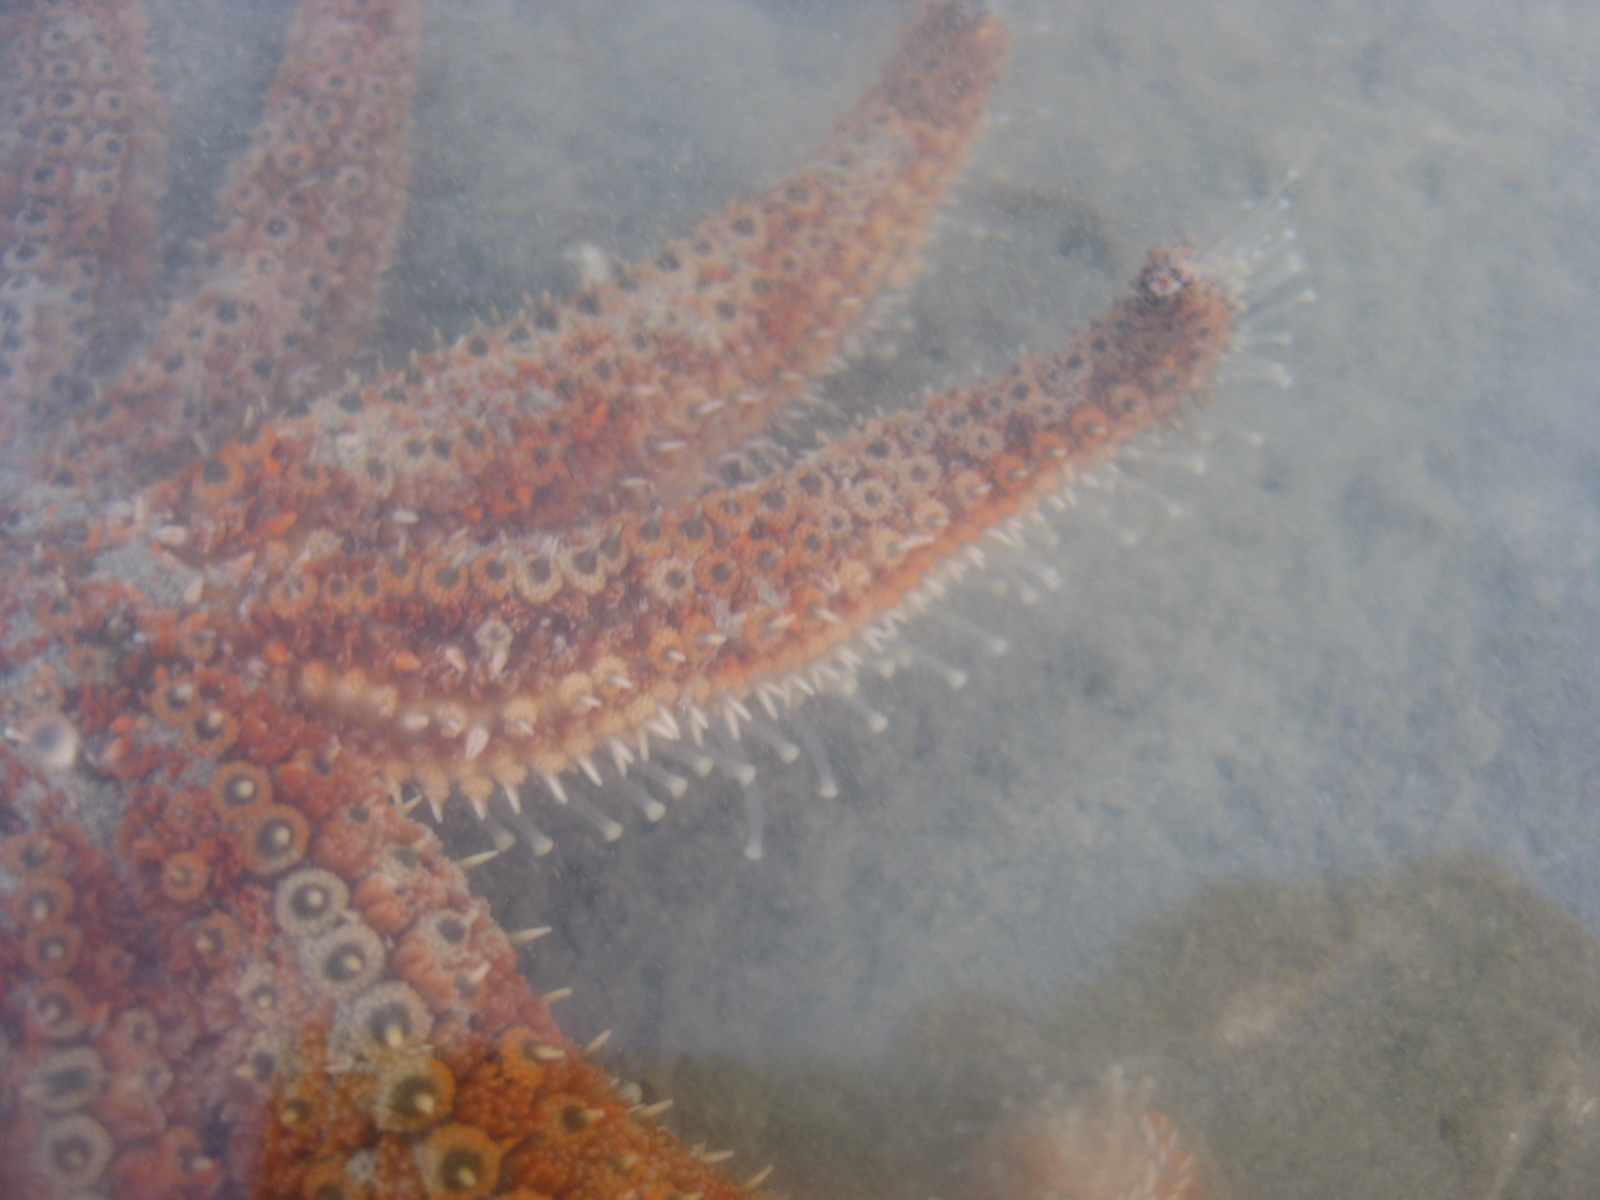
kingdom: Animalia
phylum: Echinodermata
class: Asteroidea
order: Forcipulatida
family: Asteriidae
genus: Coscinasterias
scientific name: Coscinasterias muricata
